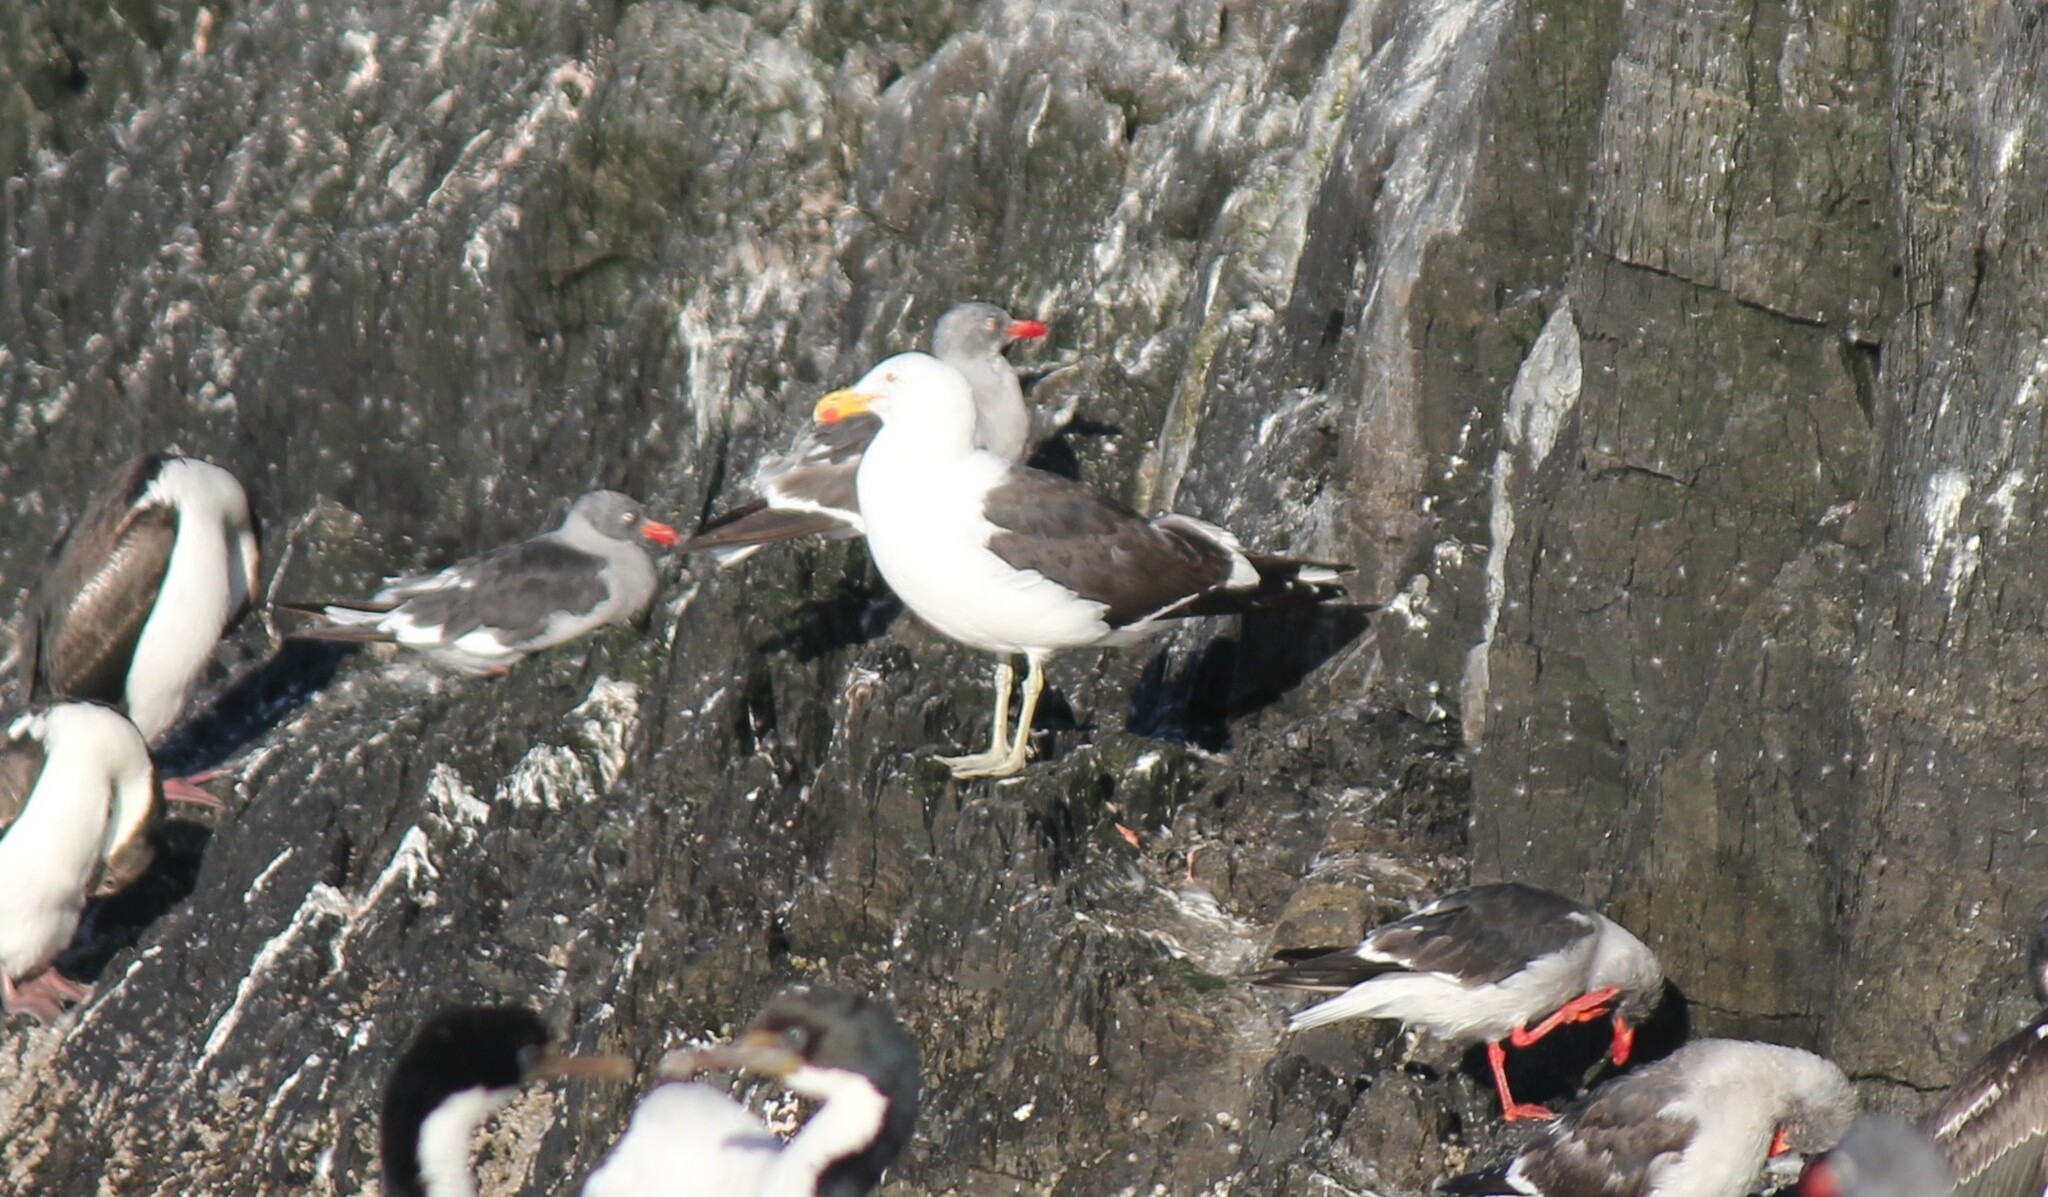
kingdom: Animalia
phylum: Chordata
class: Aves
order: Charadriiformes
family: Laridae
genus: Larus
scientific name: Larus dominicanus
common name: Kelp gull
